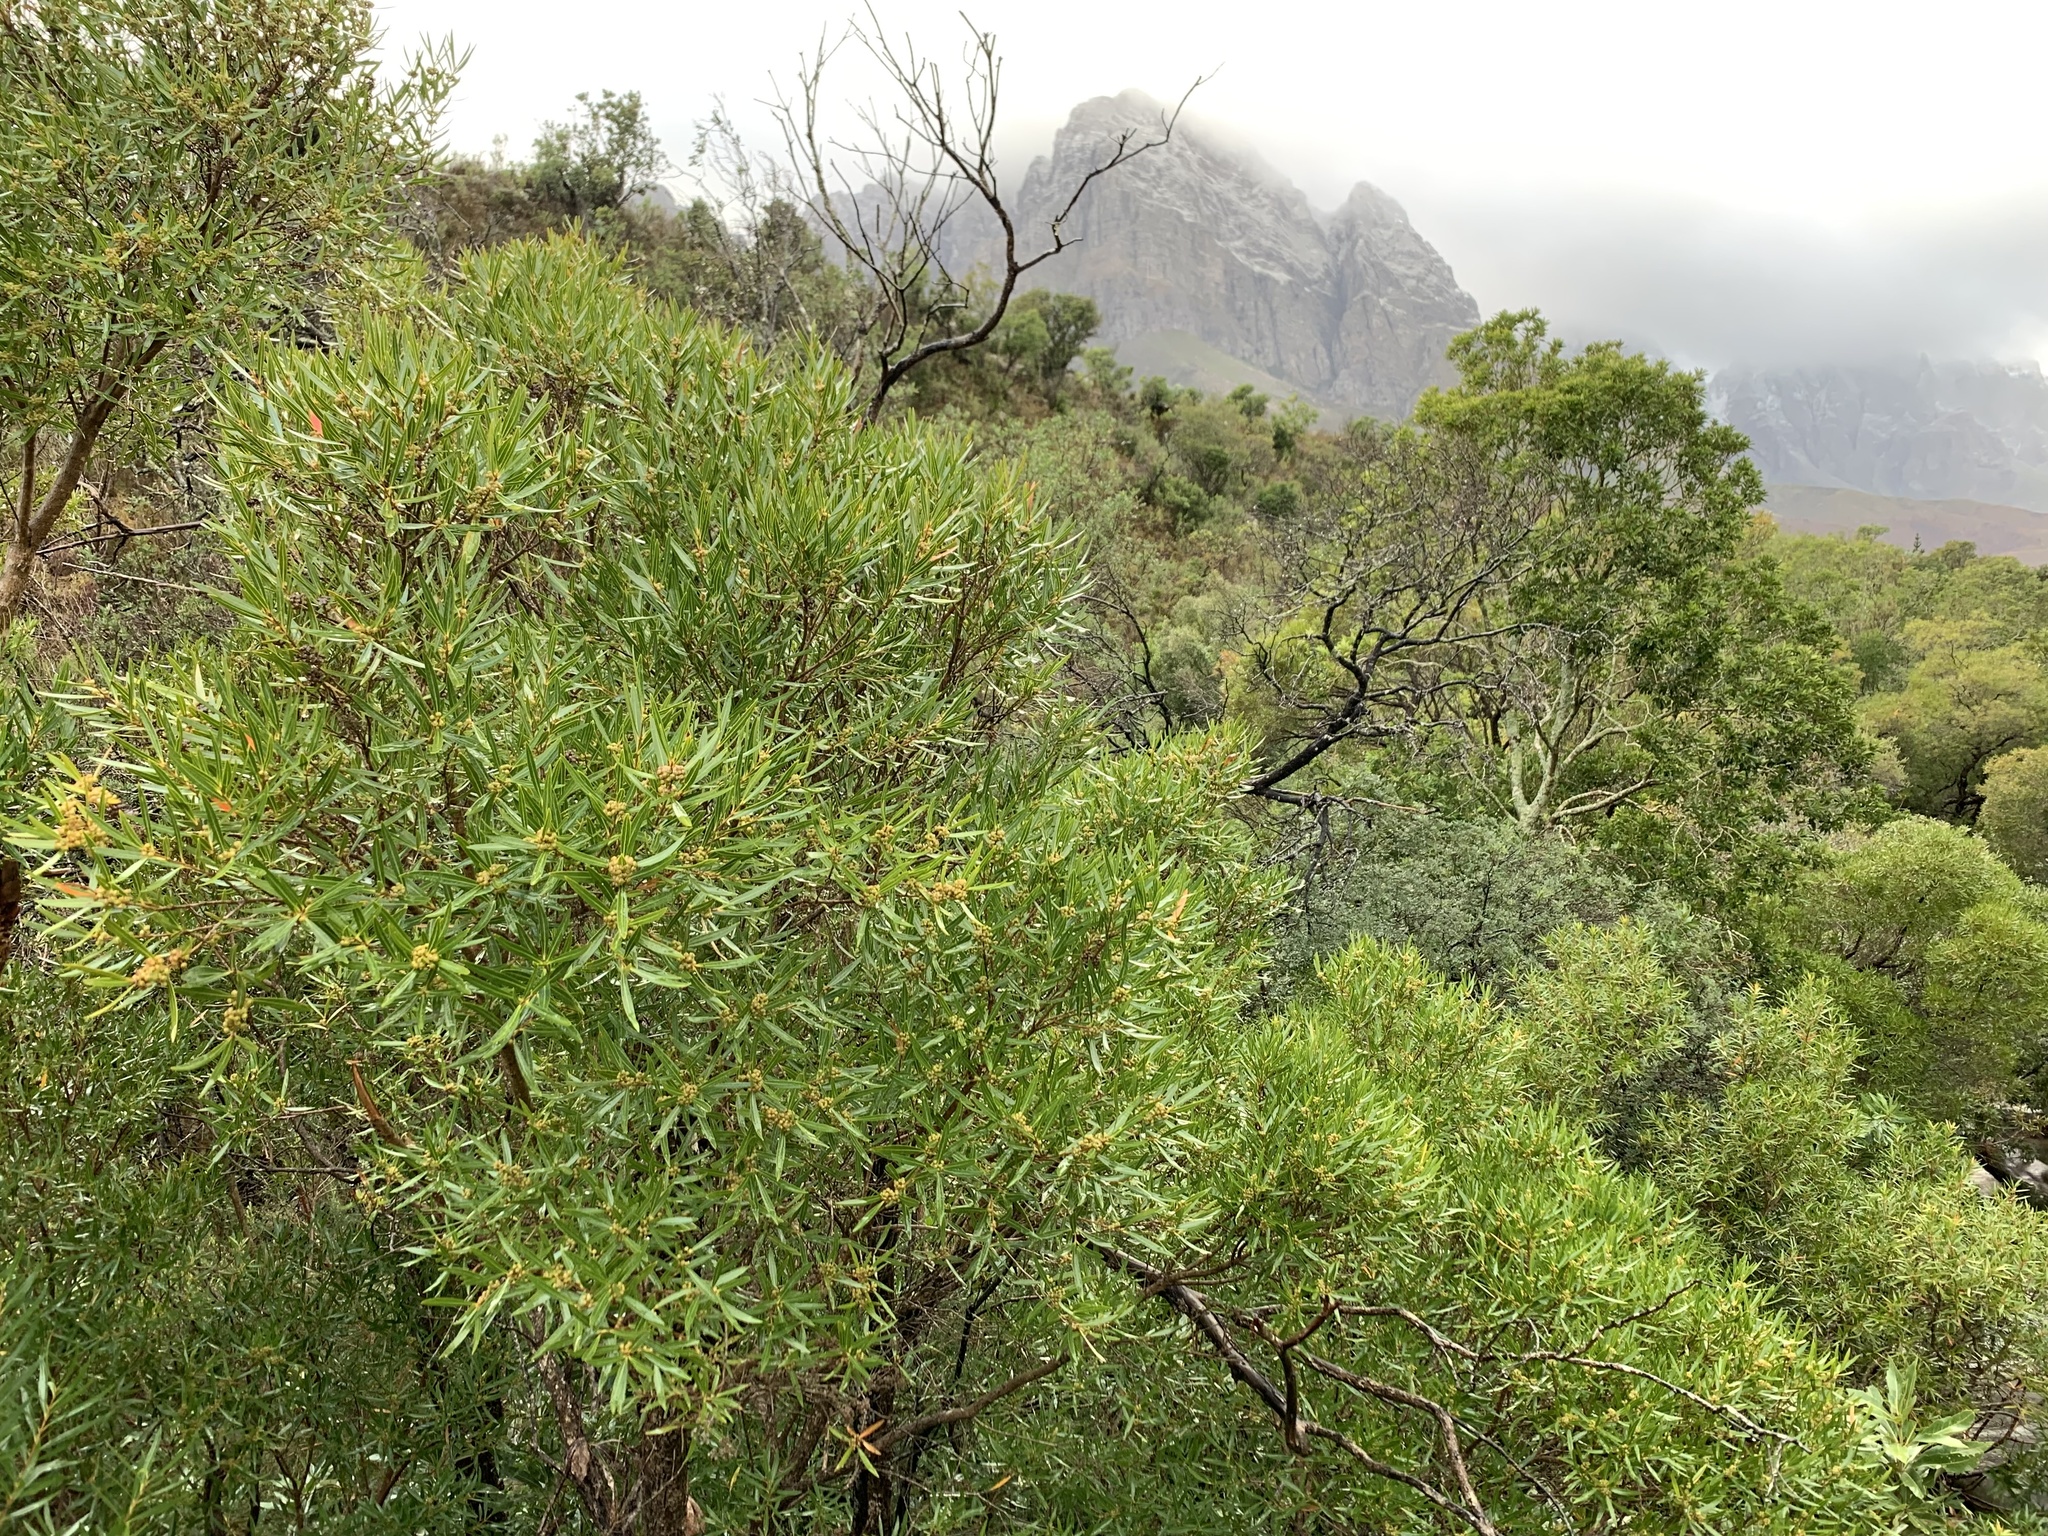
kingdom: Plantae
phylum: Tracheophyta
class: Magnoliopsida
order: Myrtales
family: Myrtaceae
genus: Callistemon
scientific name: Callistemon lanceolatus
